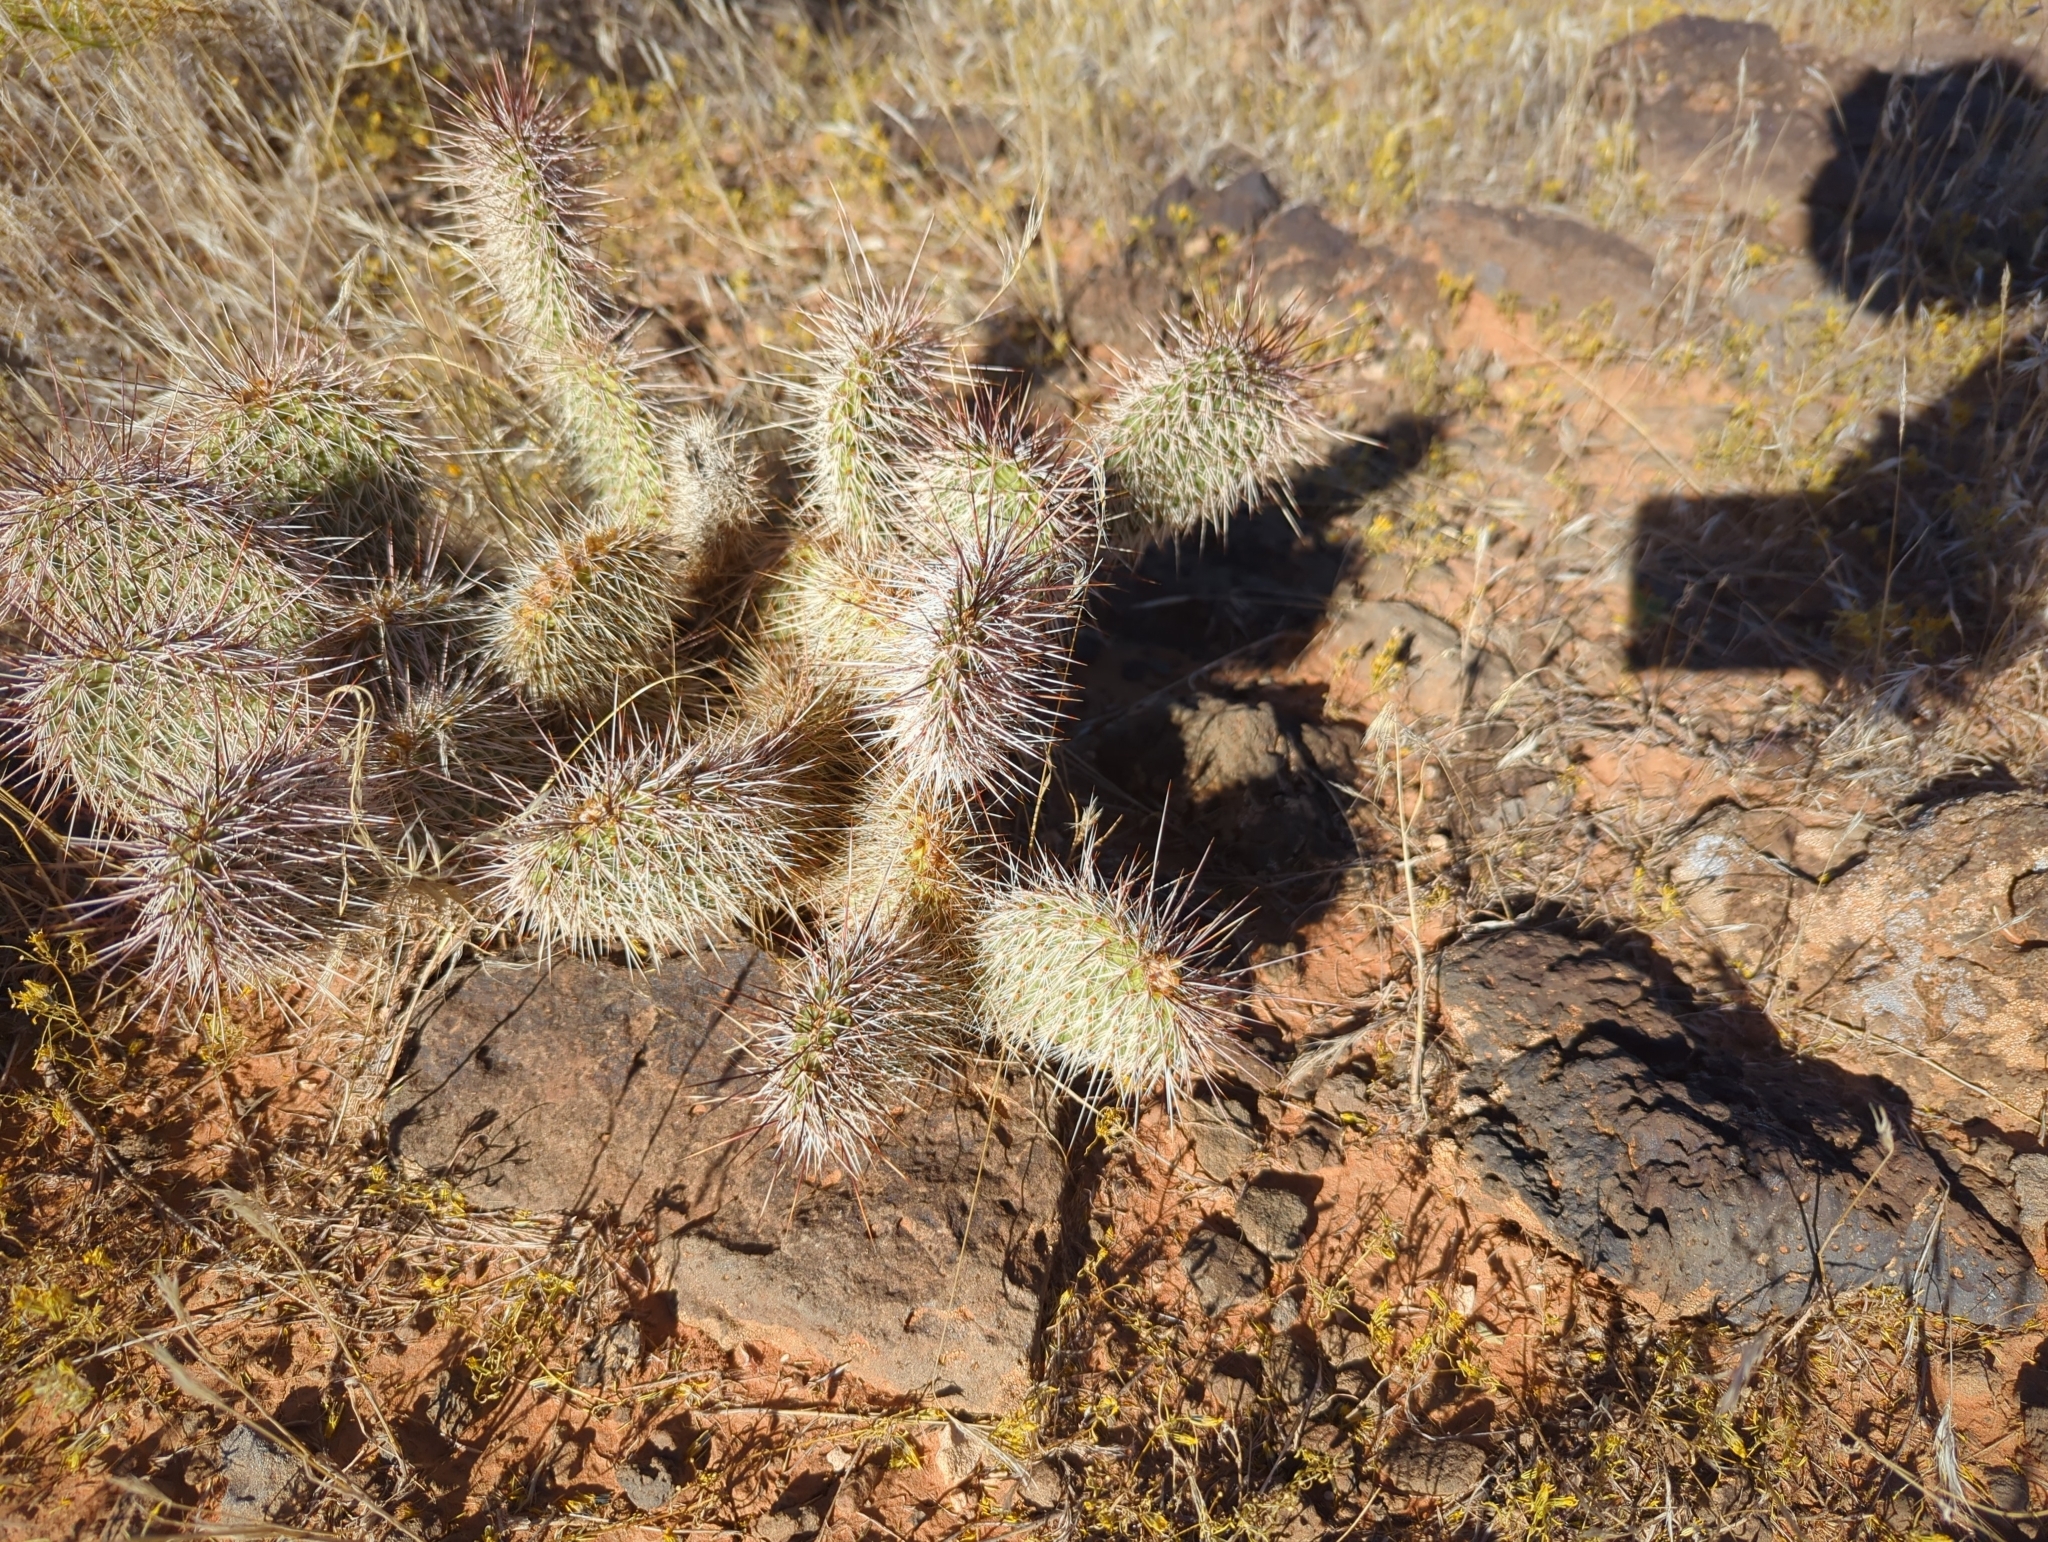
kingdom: Plantae
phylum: Tracheophyta
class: Magnoliopsida
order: Caryophyllales
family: Cactaceae
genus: Opuntia
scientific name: Opuntia polyacantha
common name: Plains prickly-pear
